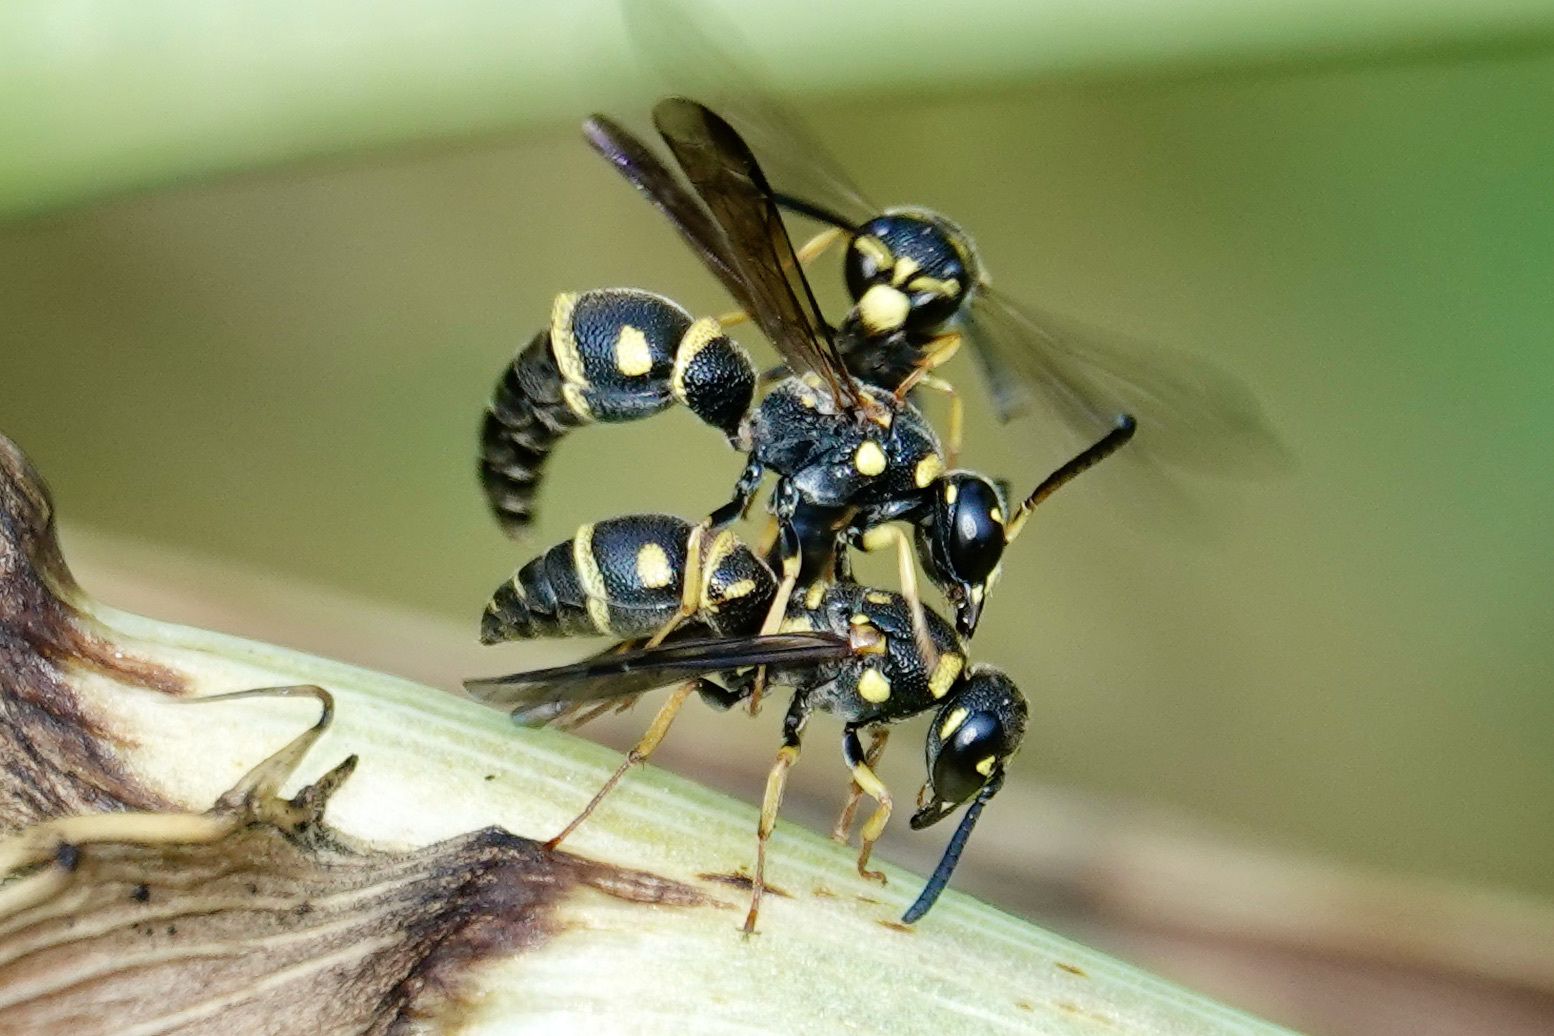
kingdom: Animalia
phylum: Arthropoda
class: Insecta
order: Hymenoptera
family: Eumenidae
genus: Parancistrocerus
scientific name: Parancistrocerus pedestris
